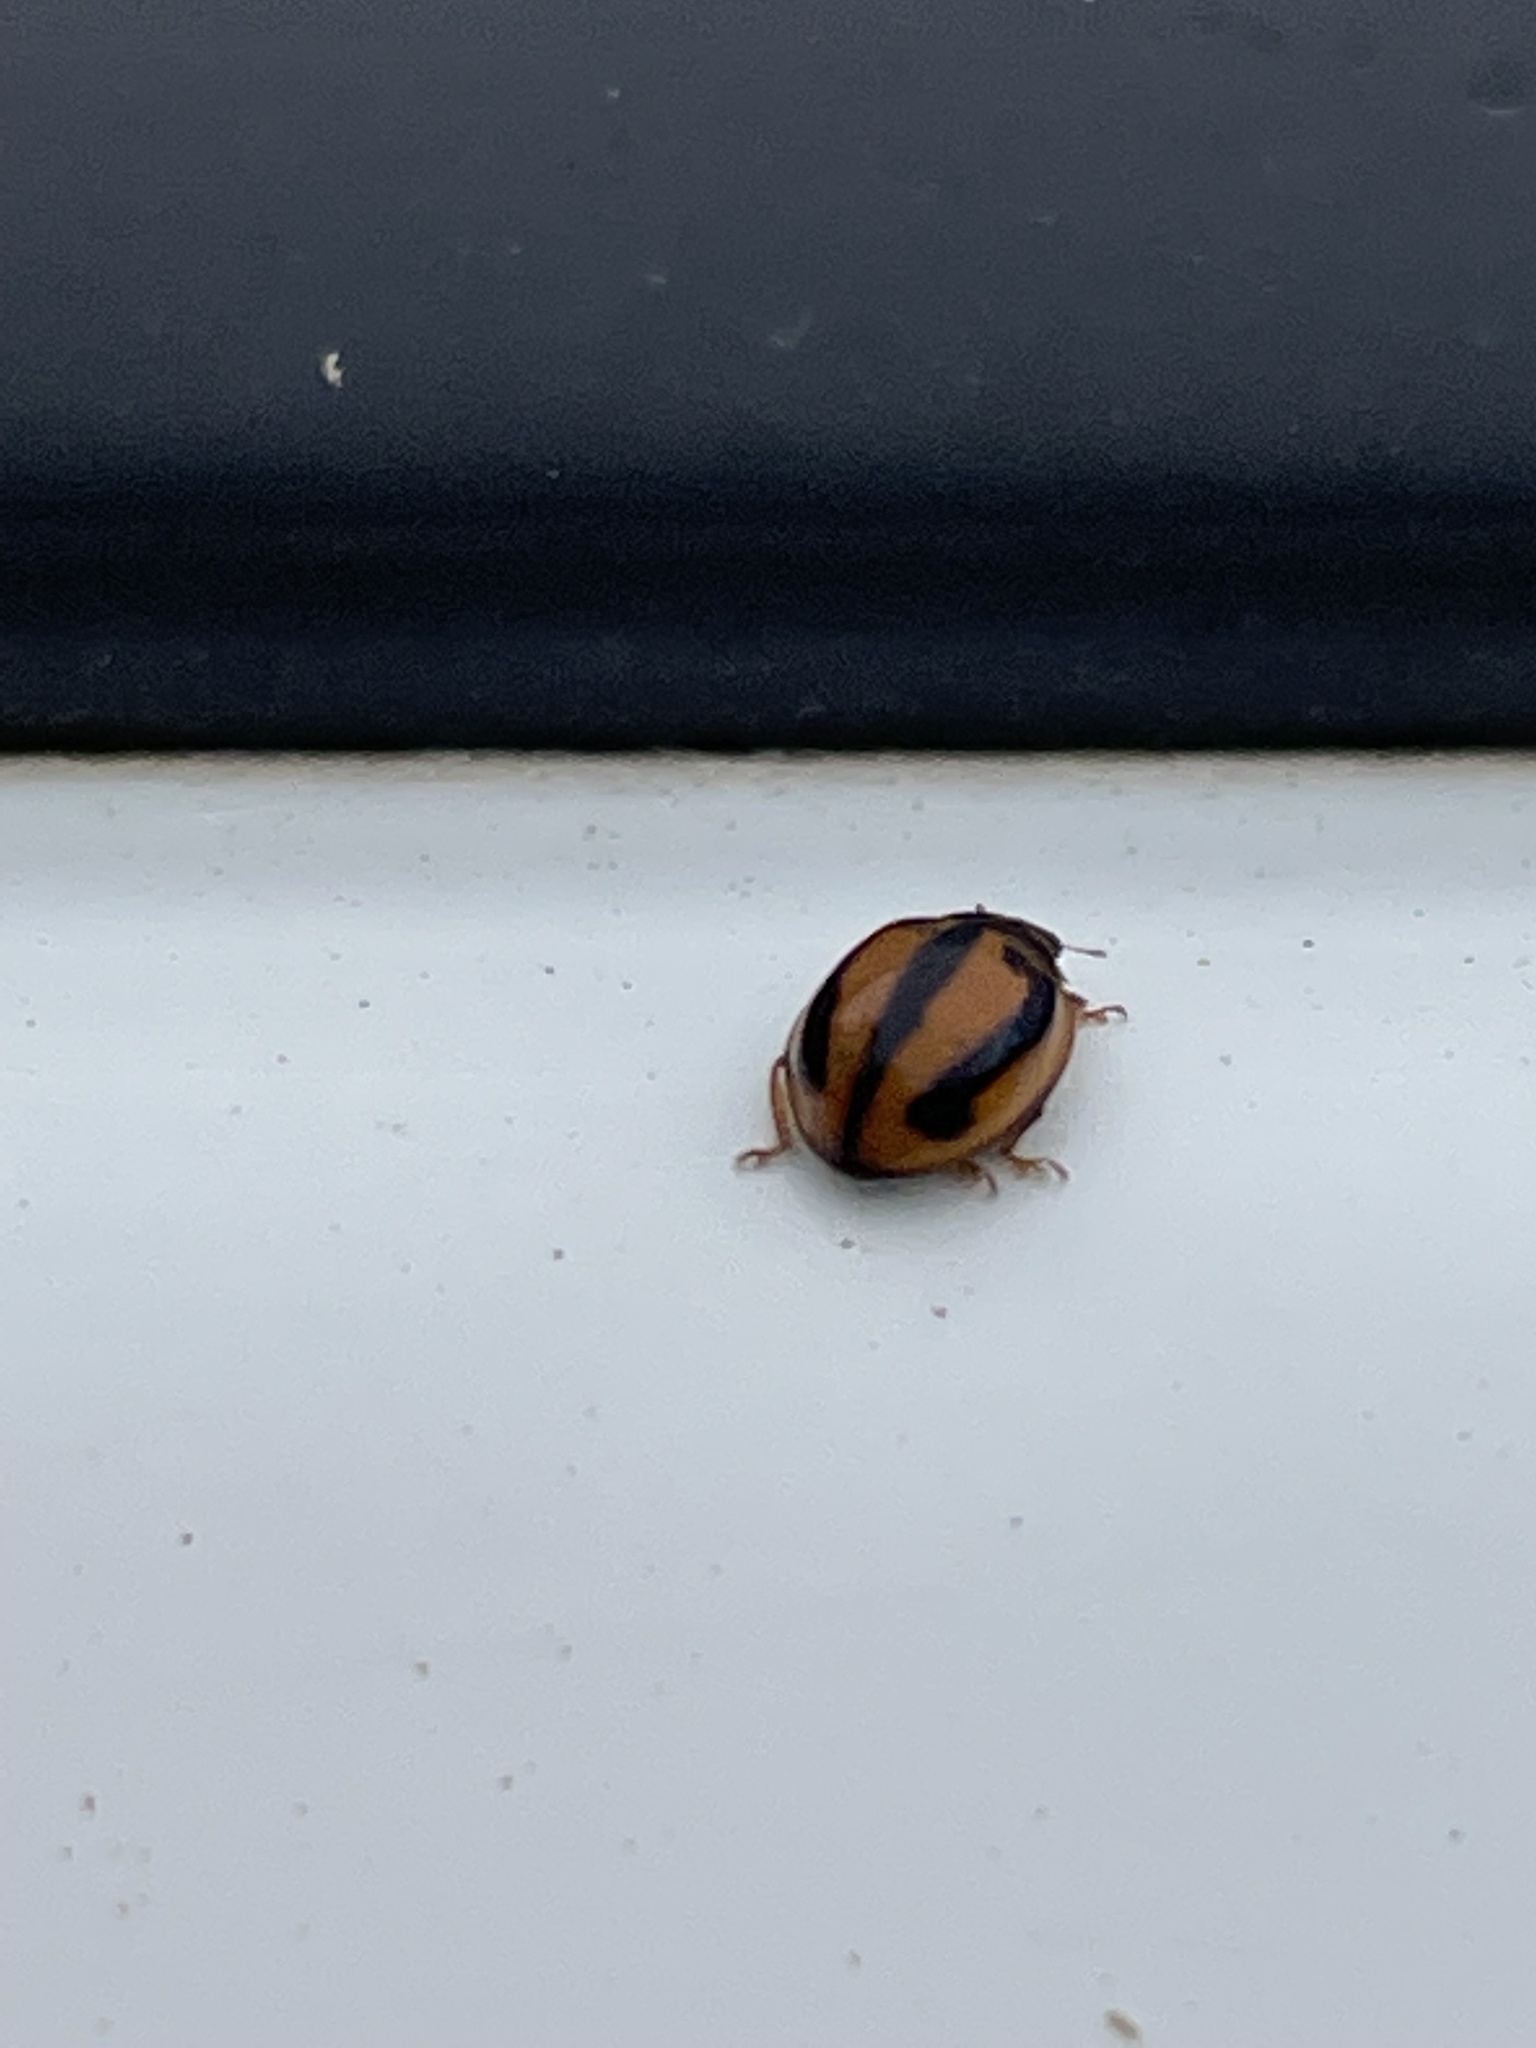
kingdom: Animalia
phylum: Arthropoda
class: Insecta
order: Coleoptera
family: Coccinellidae
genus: Micraspis
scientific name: Micraspis frenata
